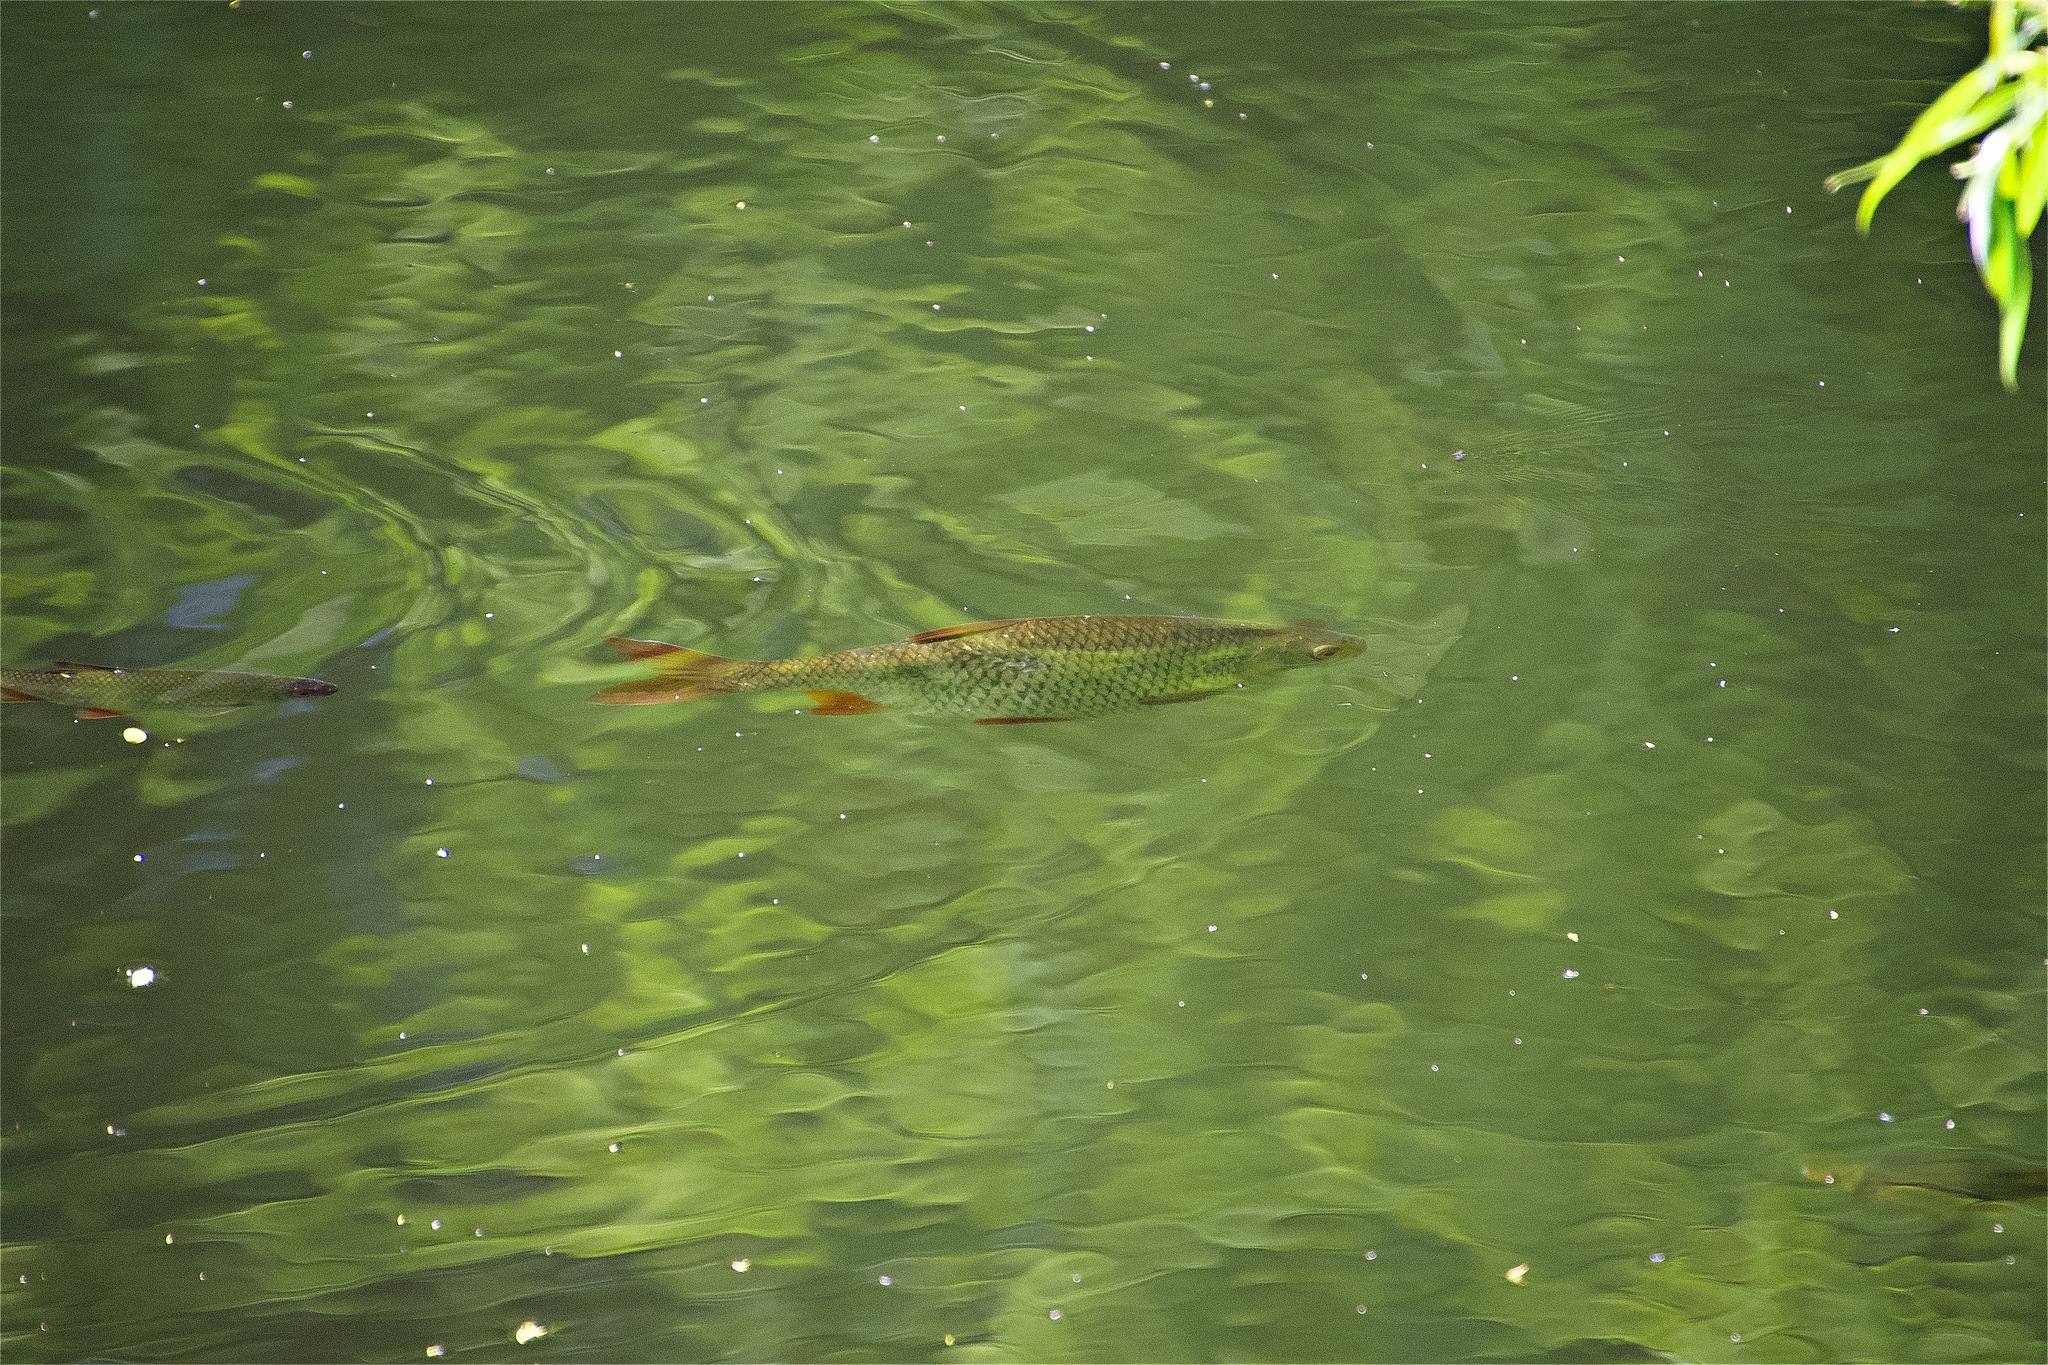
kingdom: Animalia
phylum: Chordata
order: Cypriniformes
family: Cyprinidae
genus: Scardinius
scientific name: Scardinius erythrophthalmus
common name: Rudd
